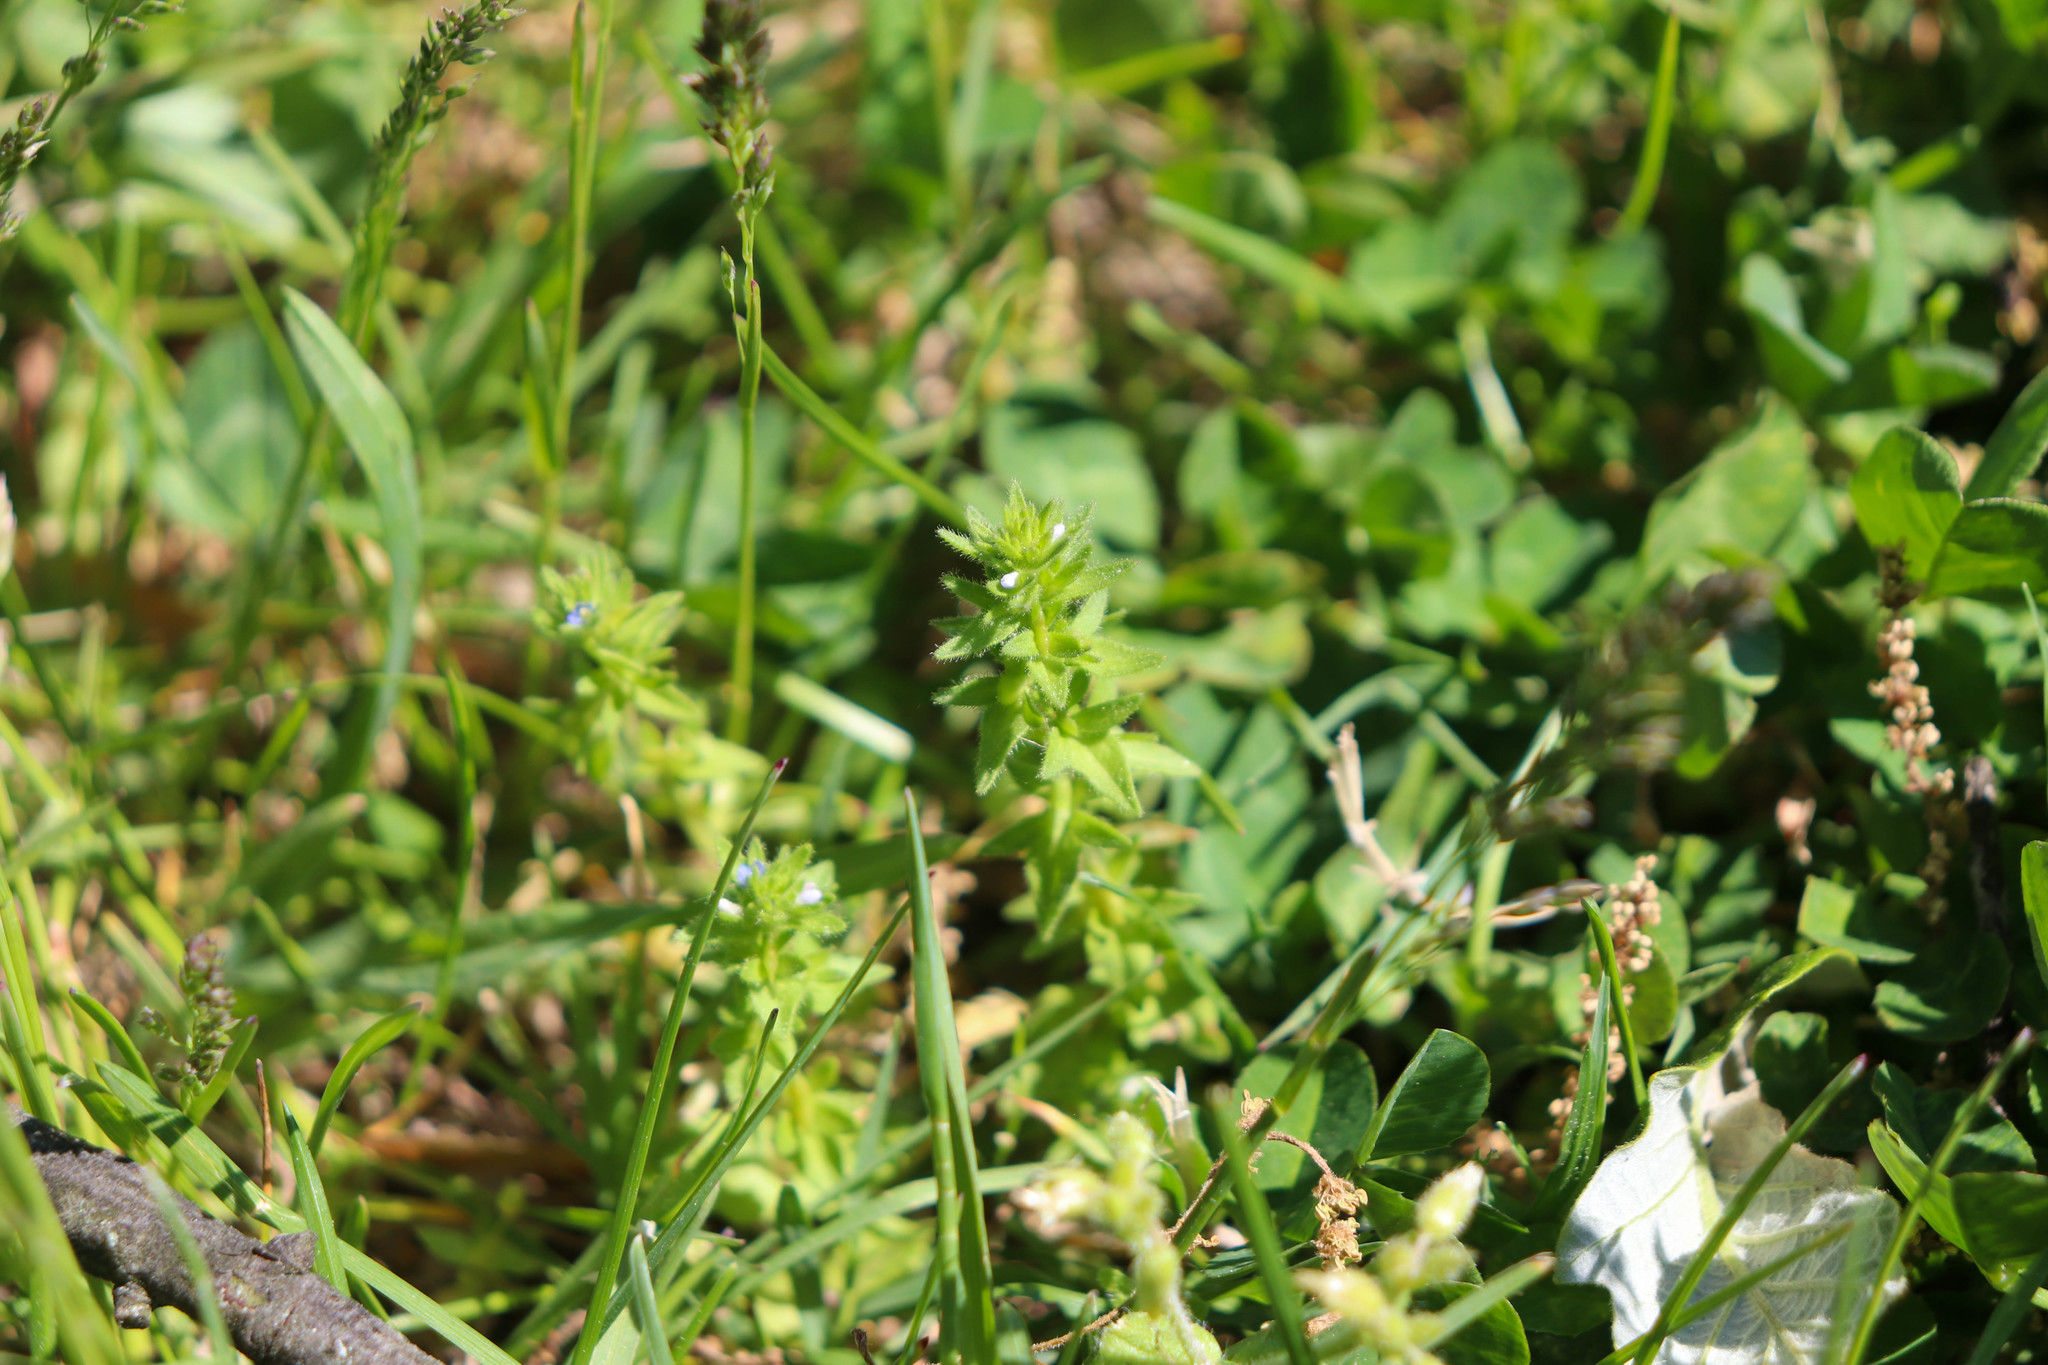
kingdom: Plantae
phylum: Tracheophyta
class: Magnoliopsida
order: Lamiales
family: Plantaginaceae
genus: Veronica
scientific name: Veronica arvensis
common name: Corn speedwell
